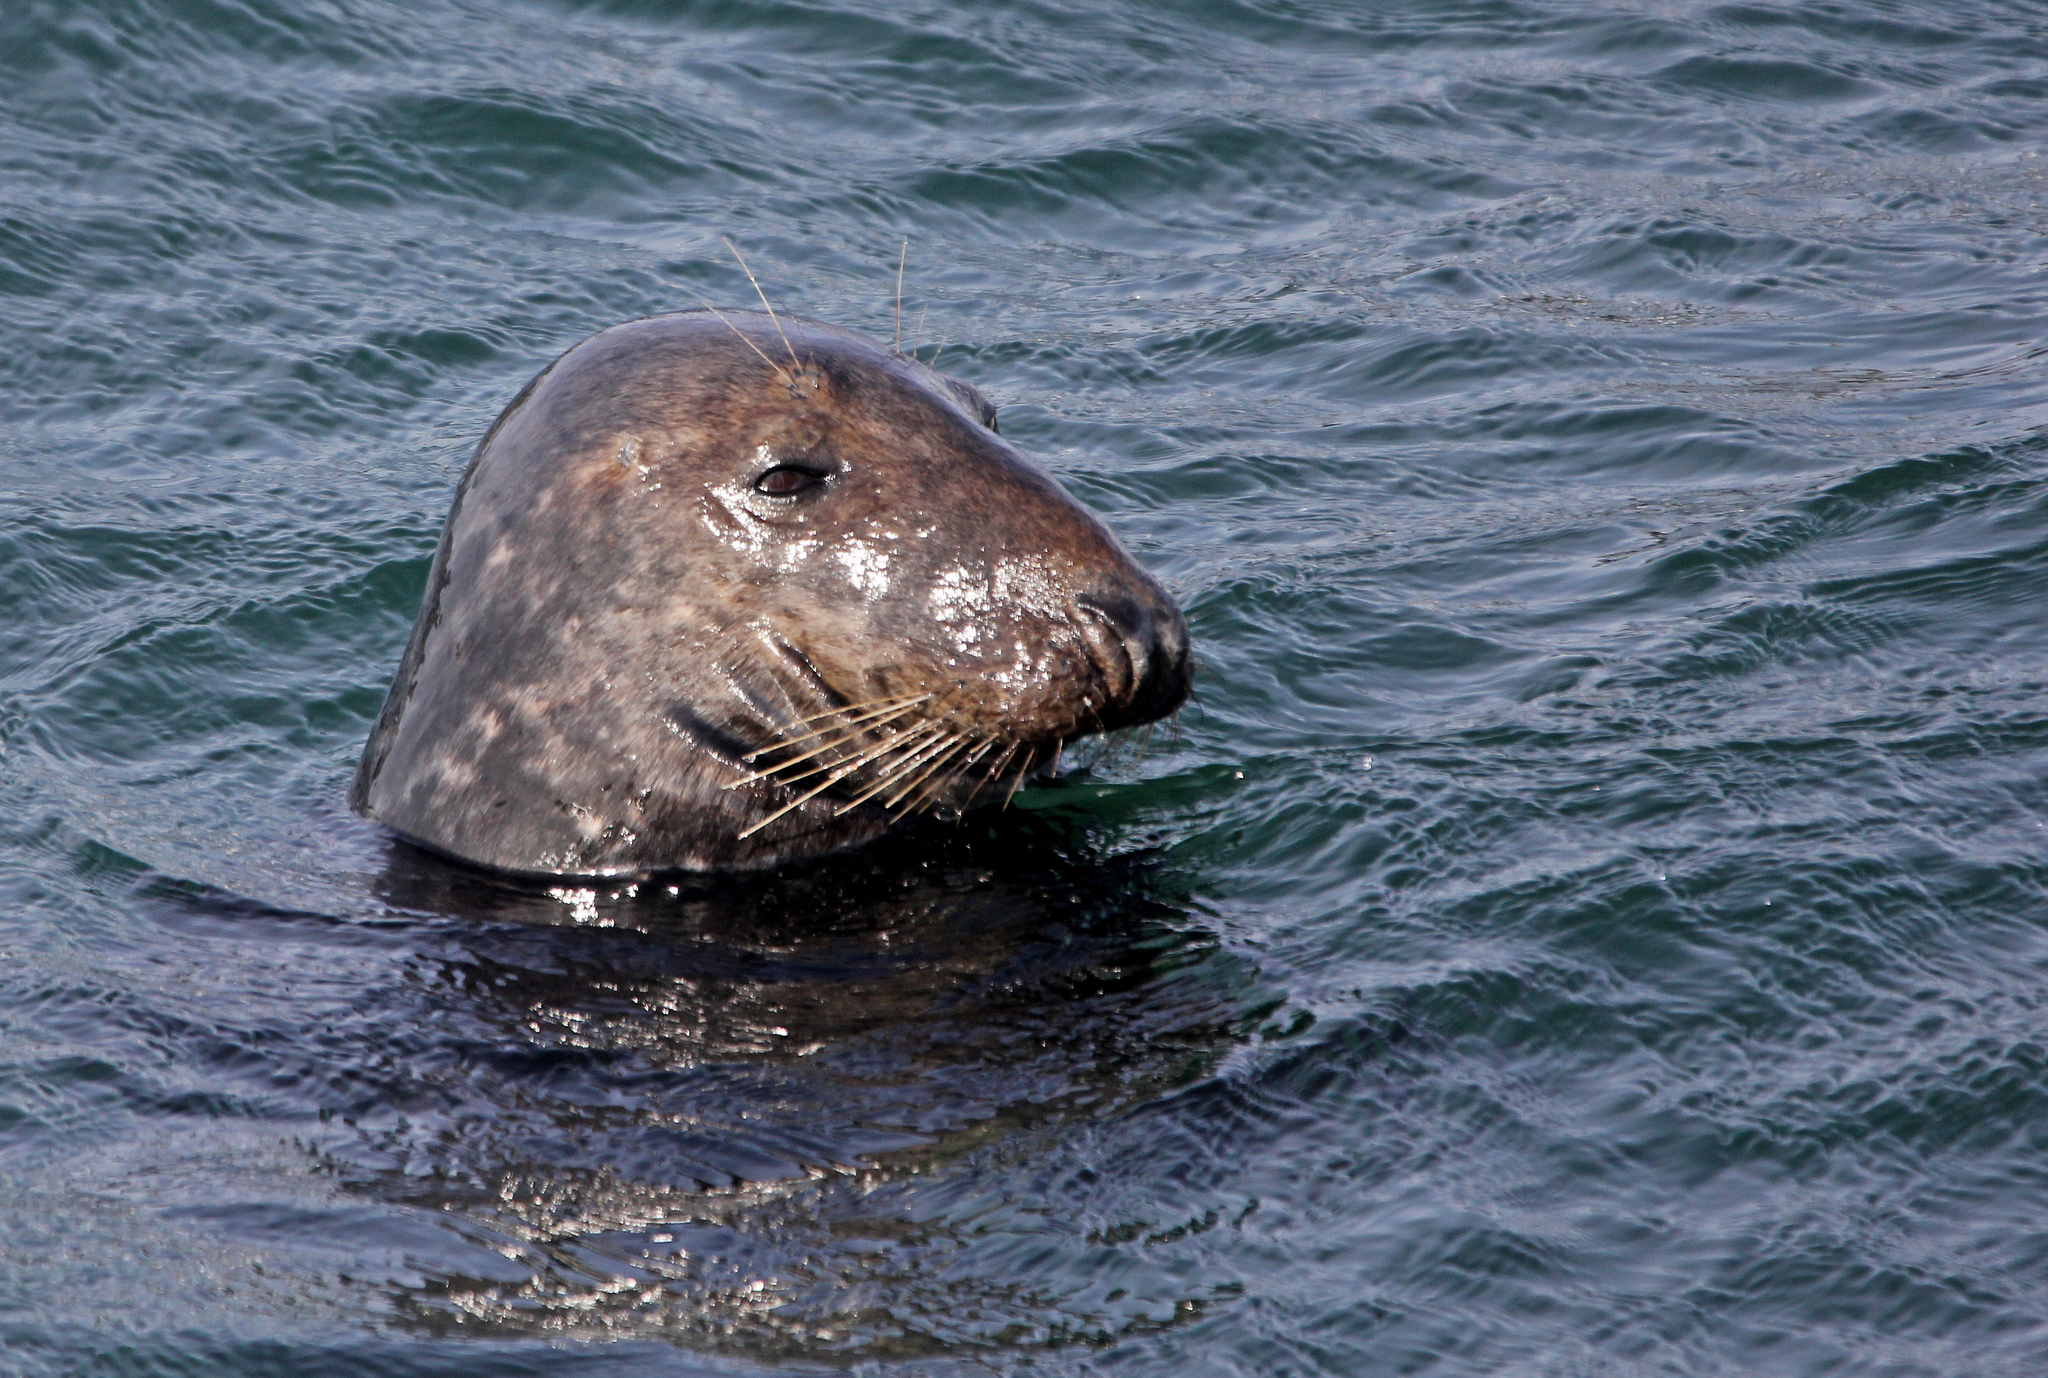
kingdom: Animalia
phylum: Chordata
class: Mammalia
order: Carnivora
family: Phocidae
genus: Halichoerus
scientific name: Halichoerus grypus
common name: Grey seal
